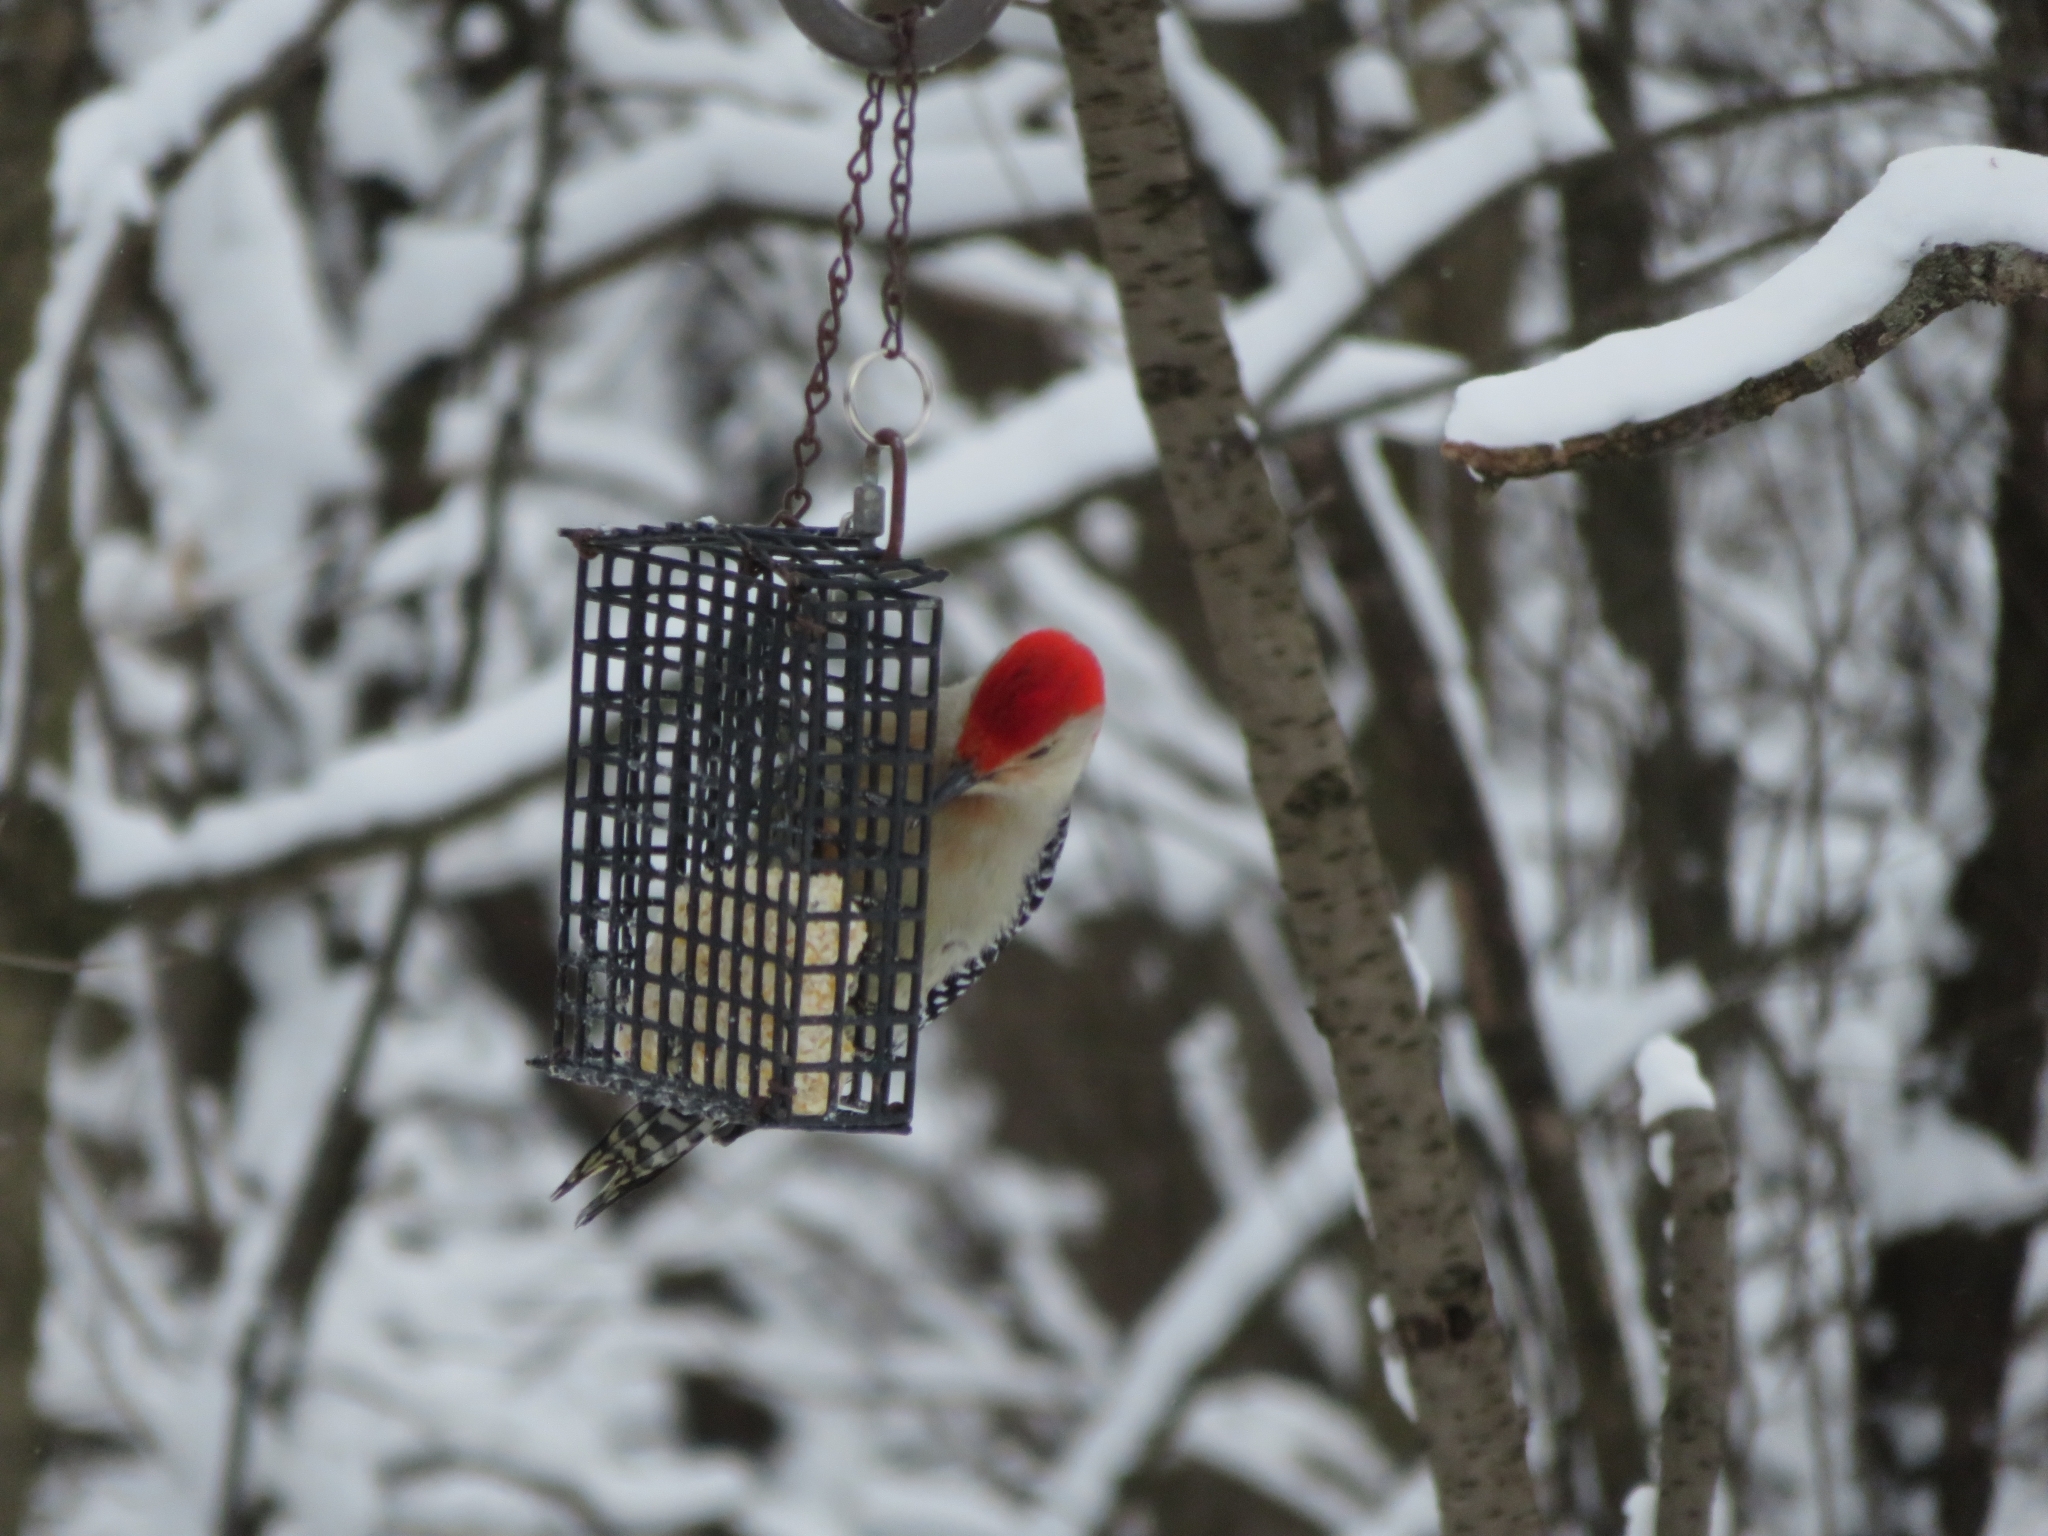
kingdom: Animalia
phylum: Chordata
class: Aves
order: Piciformes
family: Picidae
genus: Melanerpes
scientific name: Melanerpes carolinus
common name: Red-bellied woodpecker
